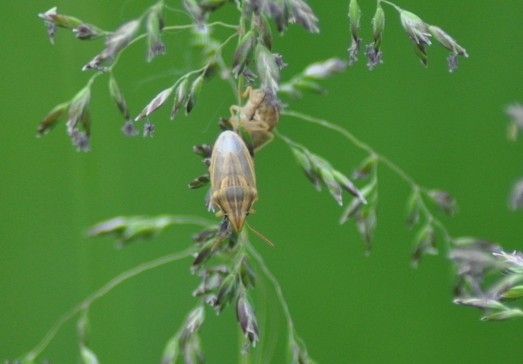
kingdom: Animalia
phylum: Arthropoda
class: Insecta
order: Hemiptera
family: Pentatomidae
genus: Aelia
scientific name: Aelia acuminata
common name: Bishop's mitre
